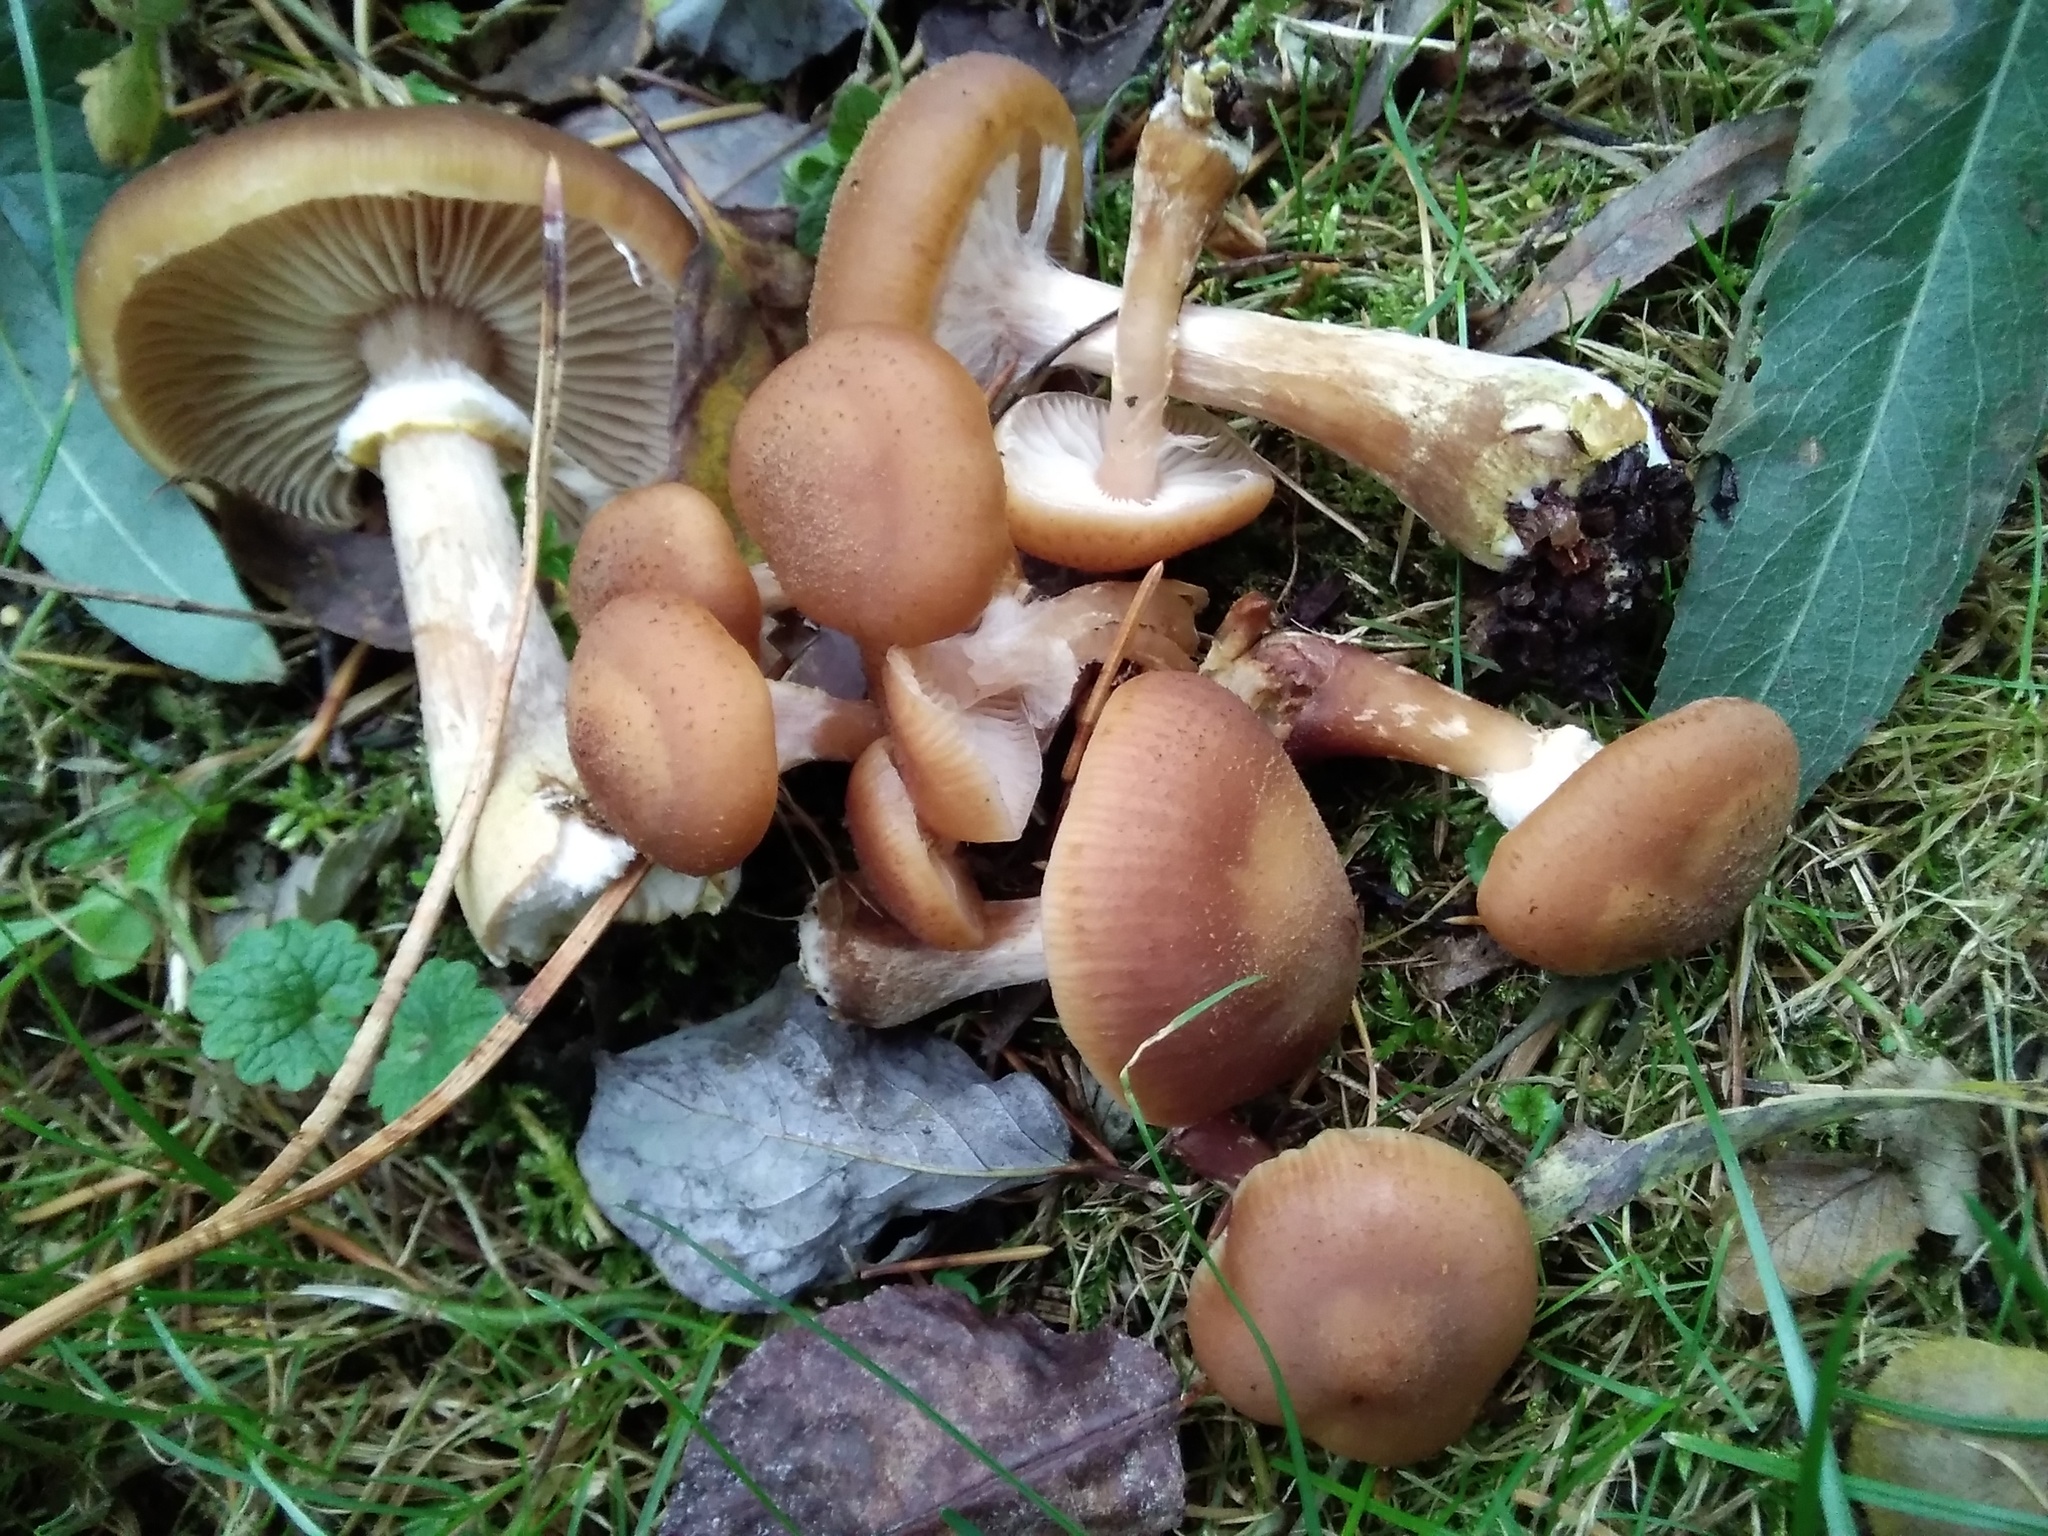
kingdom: Fungi
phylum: Basidiomycota
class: Agaricomycetes
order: Agaricales
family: Physalacriaceae
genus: Armillaria
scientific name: Armillaria mellea
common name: Honey fungus
